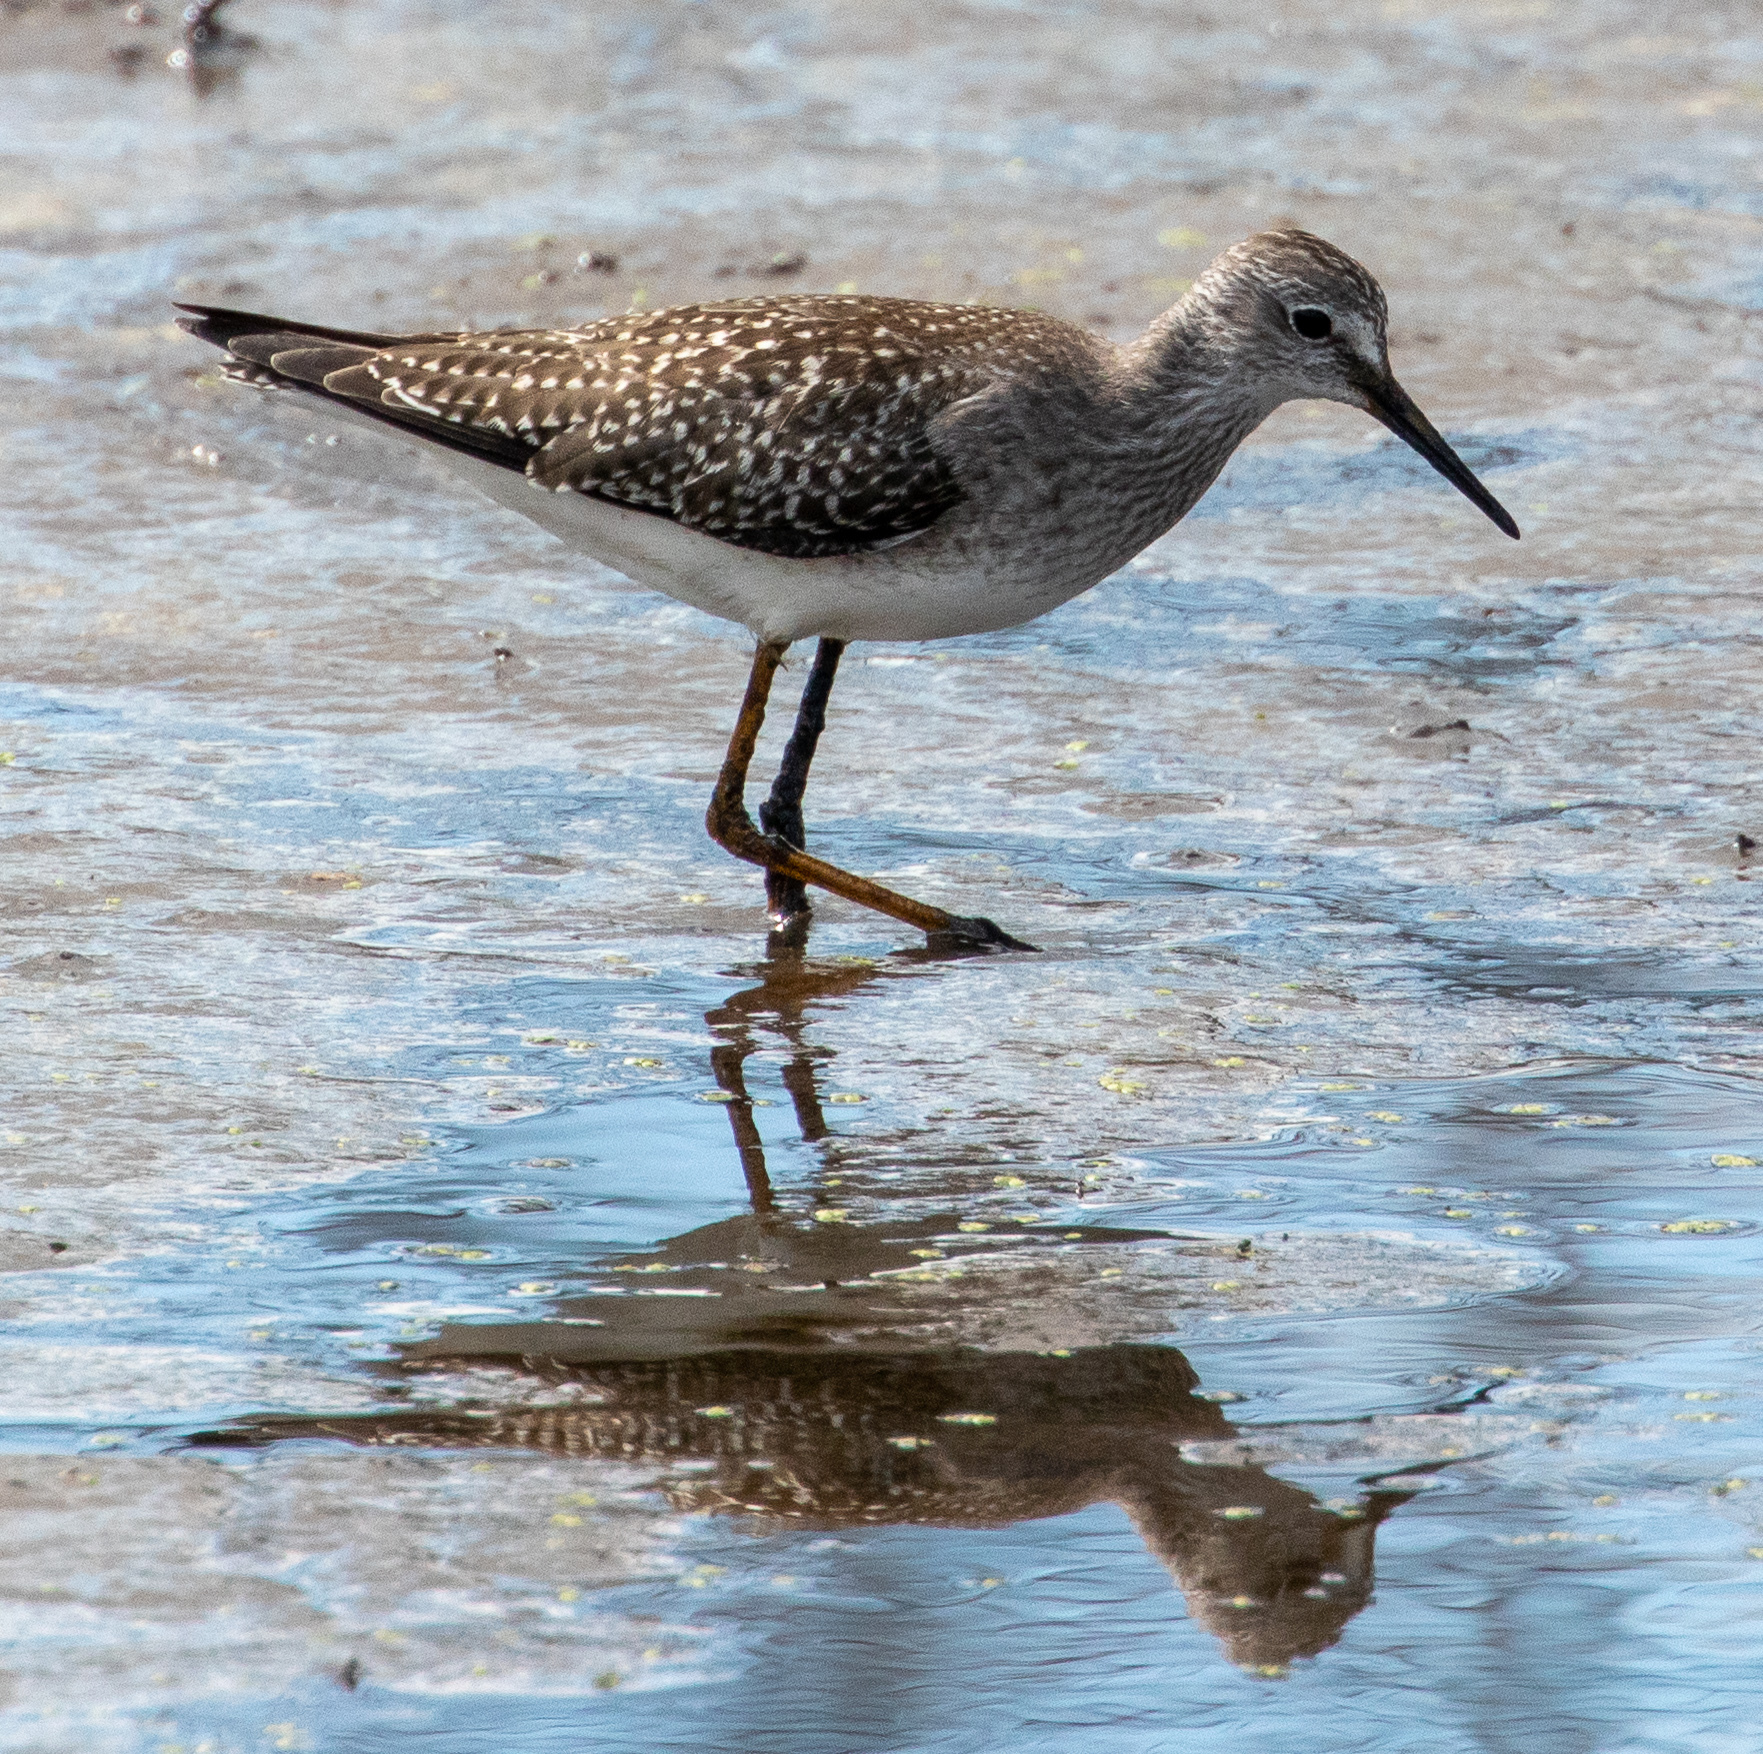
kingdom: Animalia
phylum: Chordata
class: Aves
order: Charadriiformes
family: Scolopacidae
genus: Tringa
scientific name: Tringa flavipes
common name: Lesser yellowlegs
